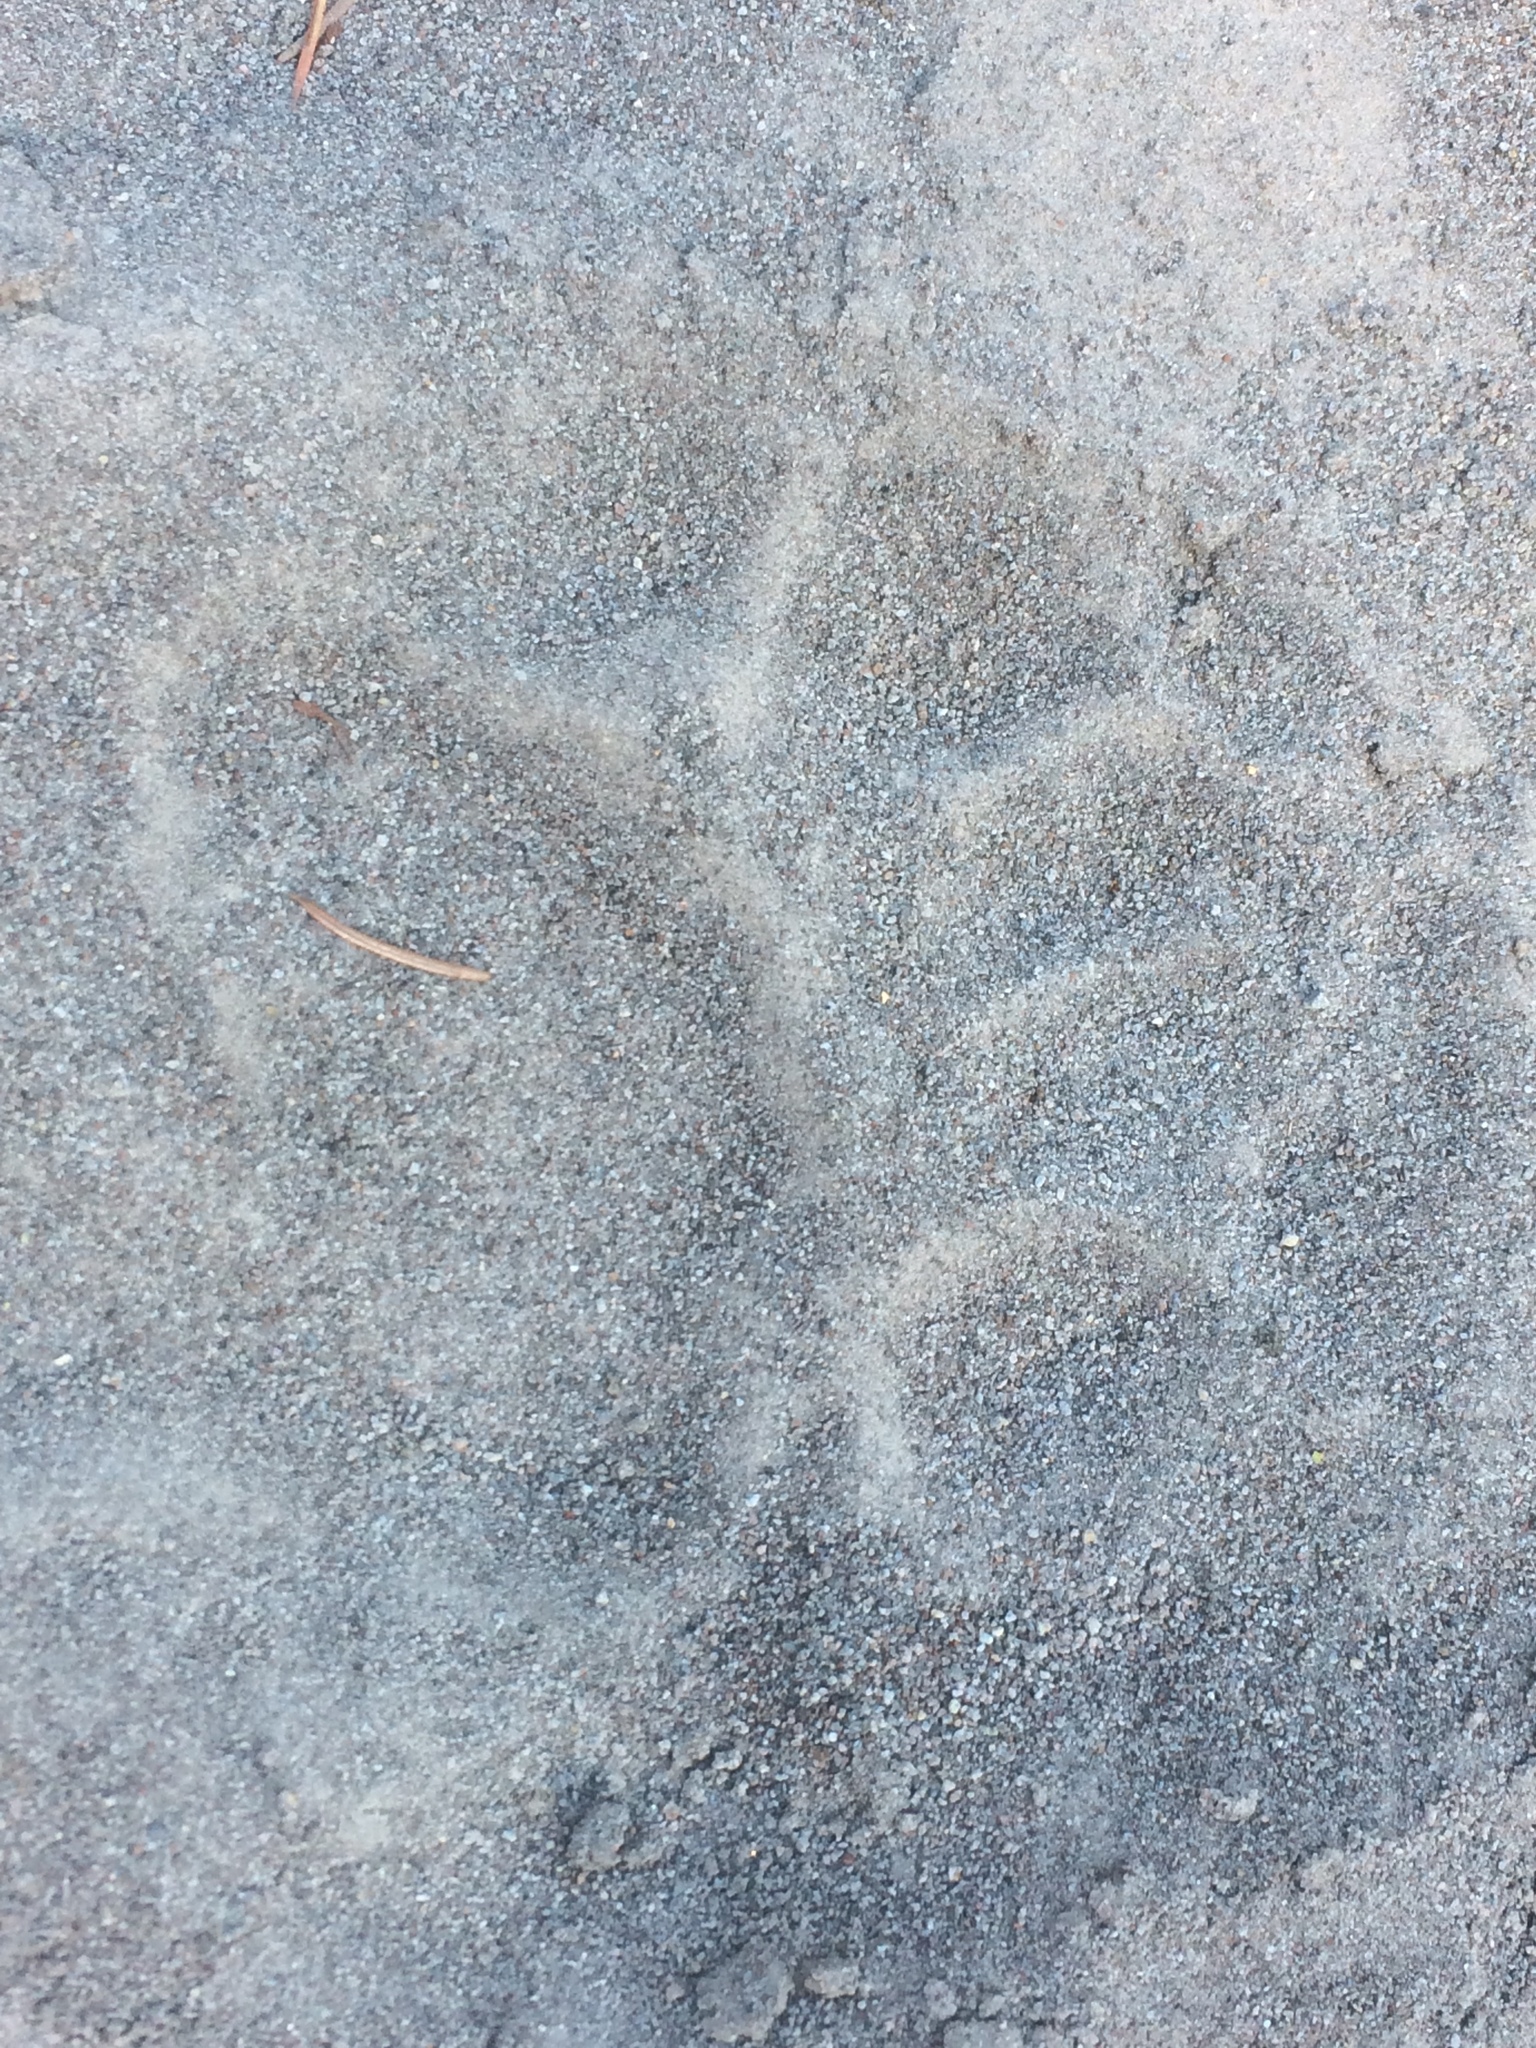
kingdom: Animalia
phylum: Chordata
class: Mammalia
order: Carnivora
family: Ursidae
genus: Ursus
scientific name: Ursus americanus
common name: American black bear
